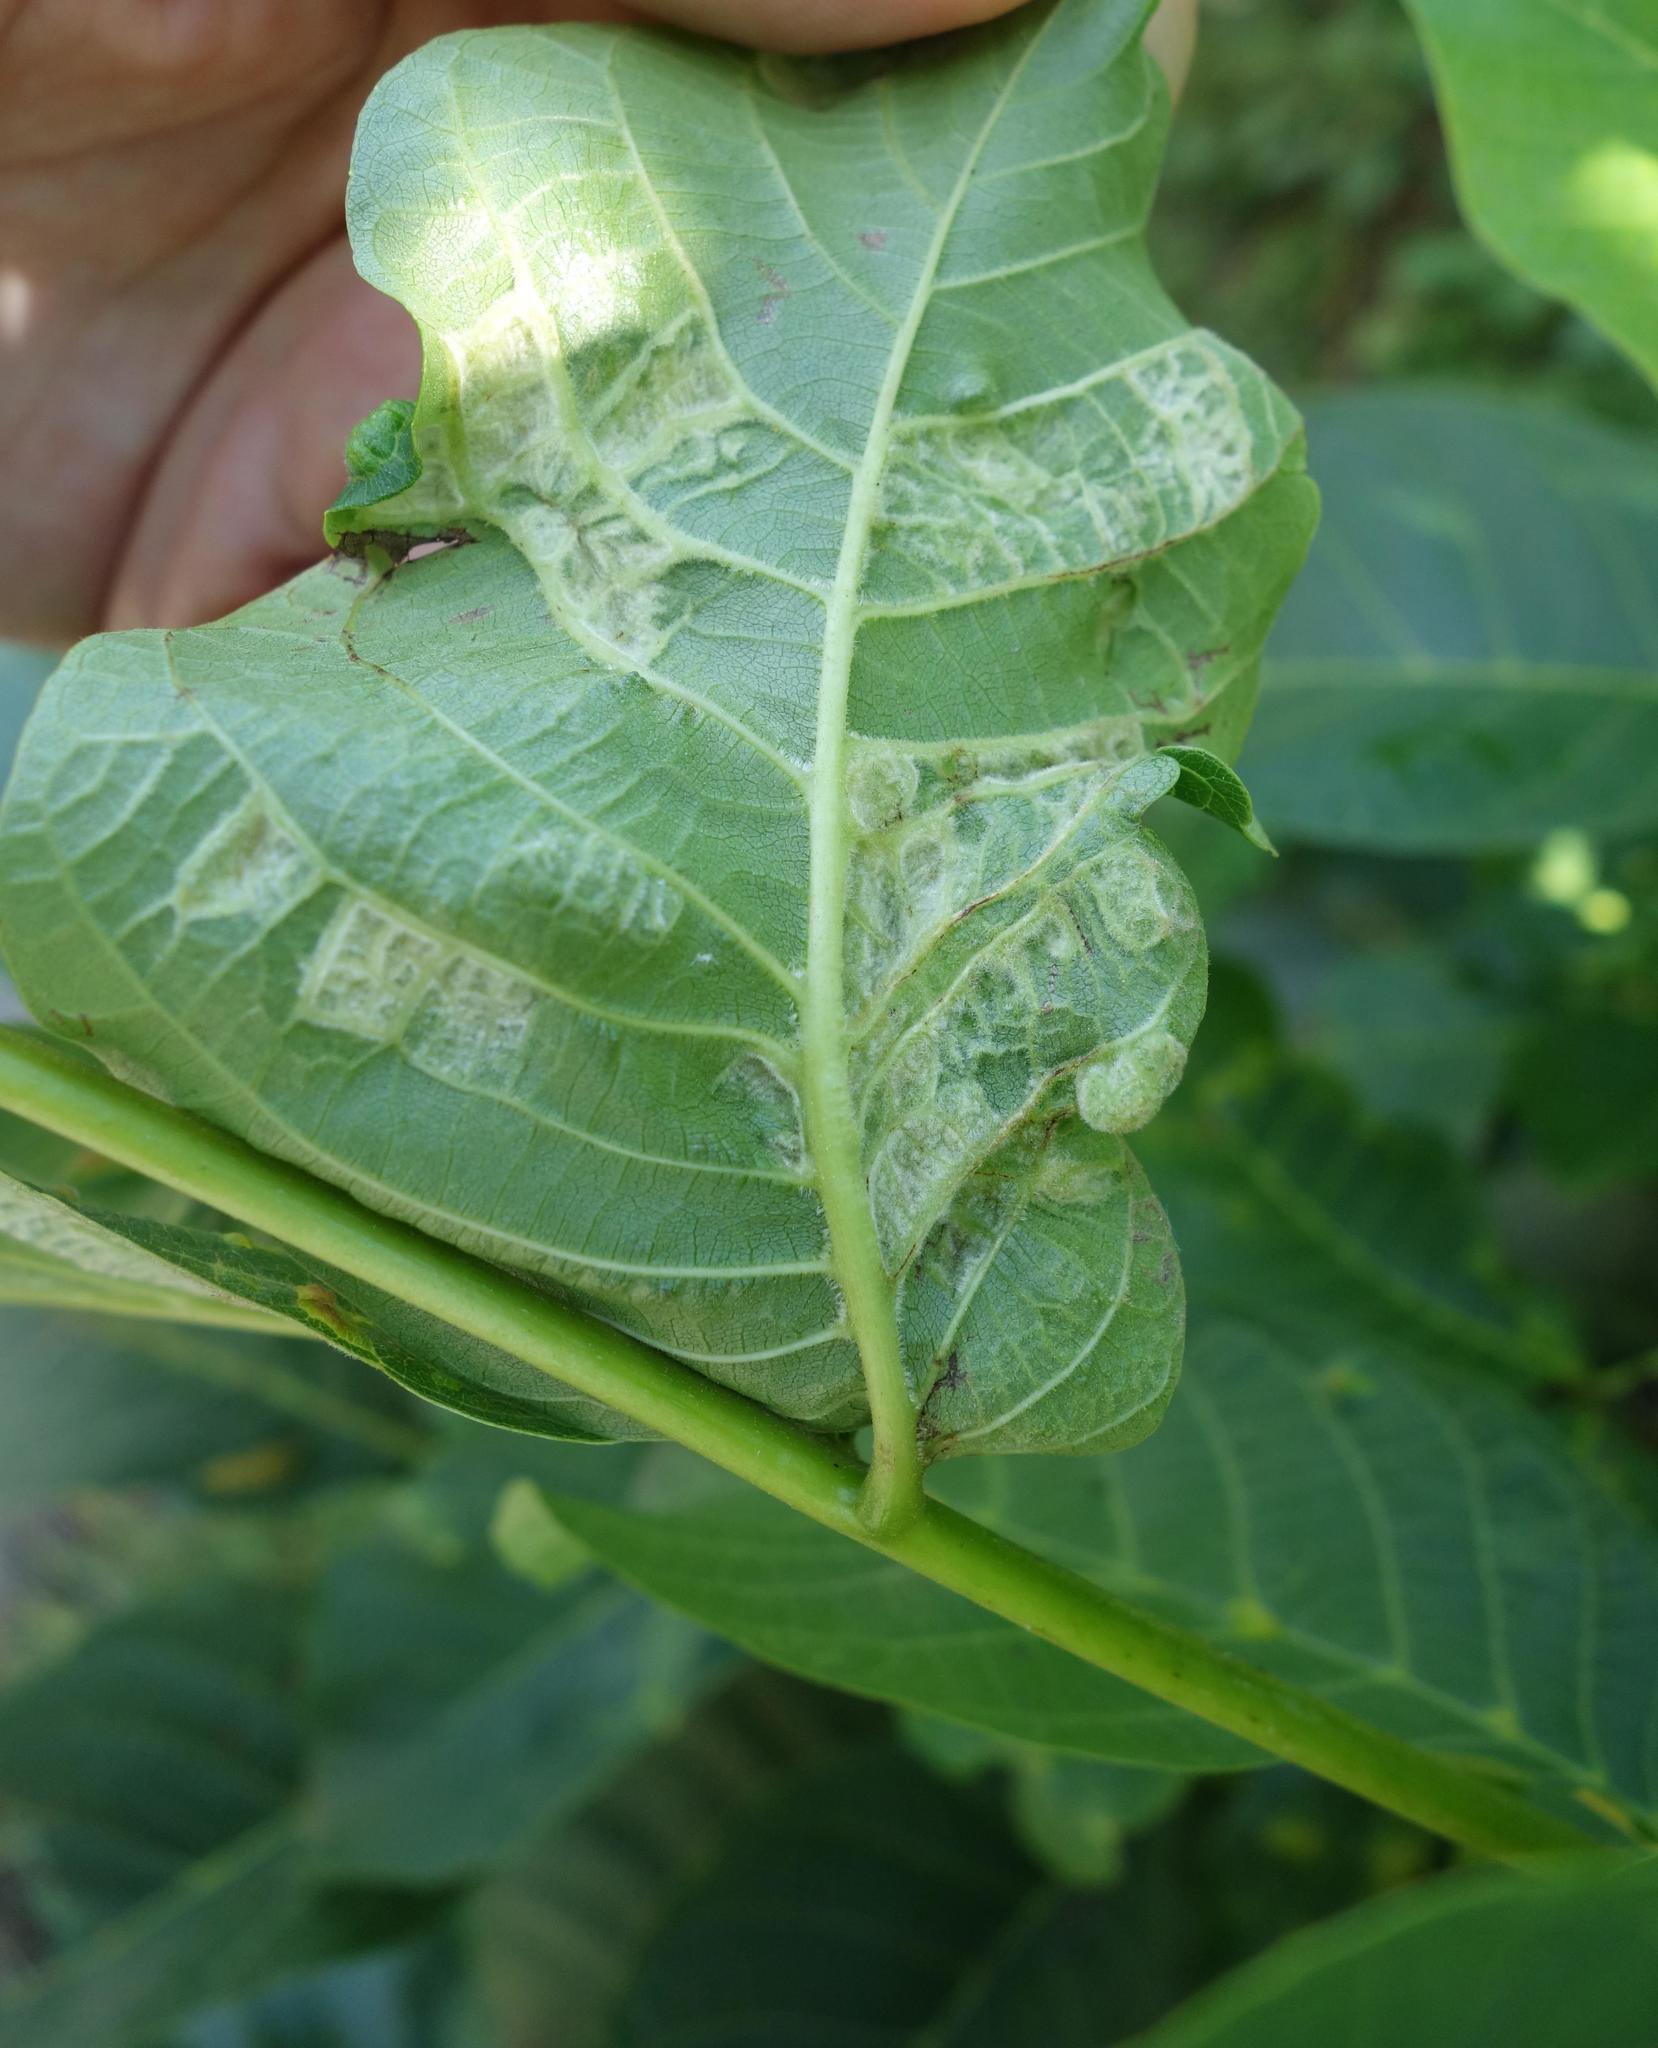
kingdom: Animalia
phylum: Arthropoda
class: Arachnida
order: Trombidiformes
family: Eriophyidae
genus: Aceria
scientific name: Aceria erinea
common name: Persian walnut erineum mite
